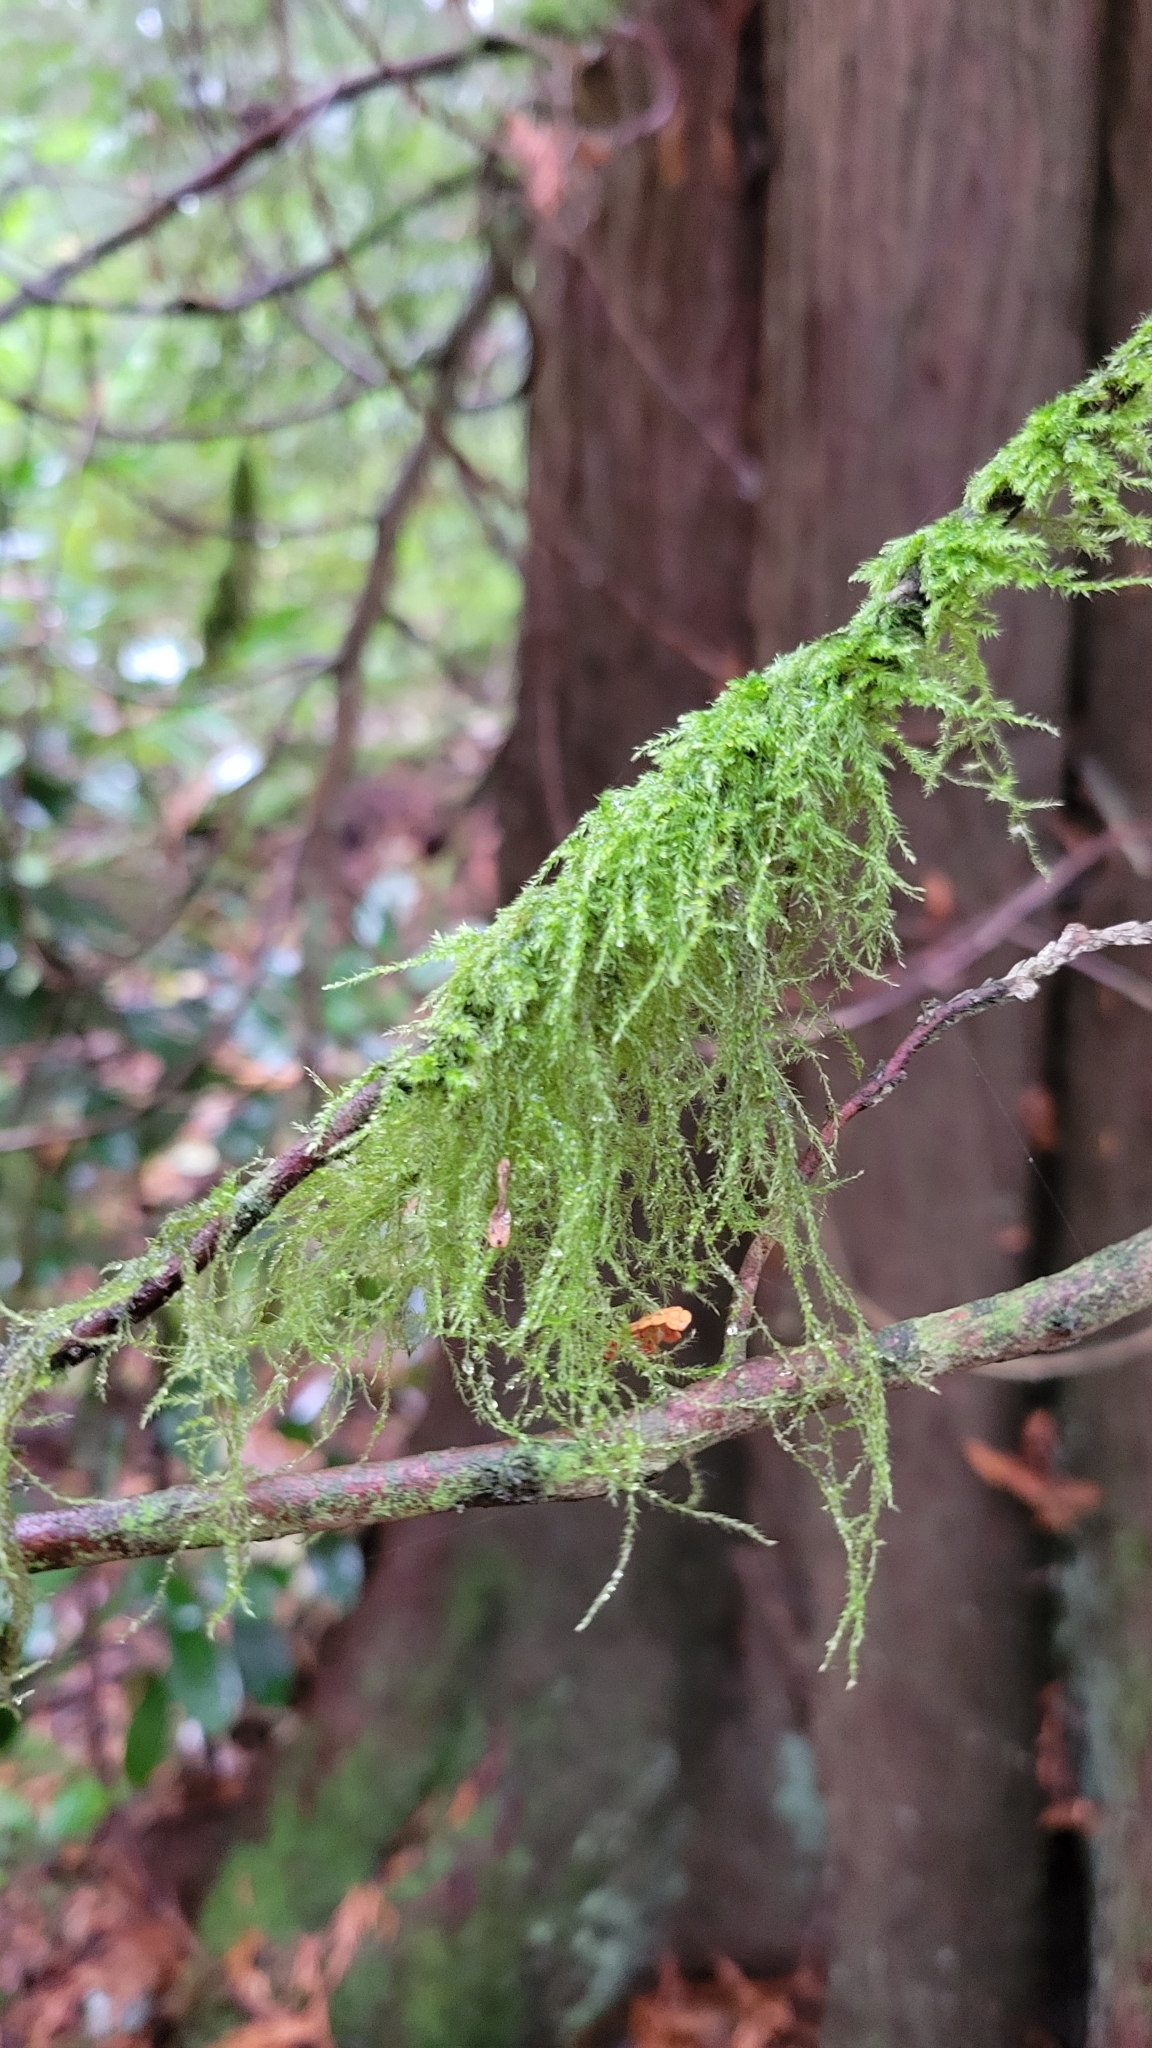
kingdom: Plantae
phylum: Bryophyta
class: Bryopsida
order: Hypnales
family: Lembophyllaceae
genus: Pseudisothecium
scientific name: Pseudisothecium stoloniferum
